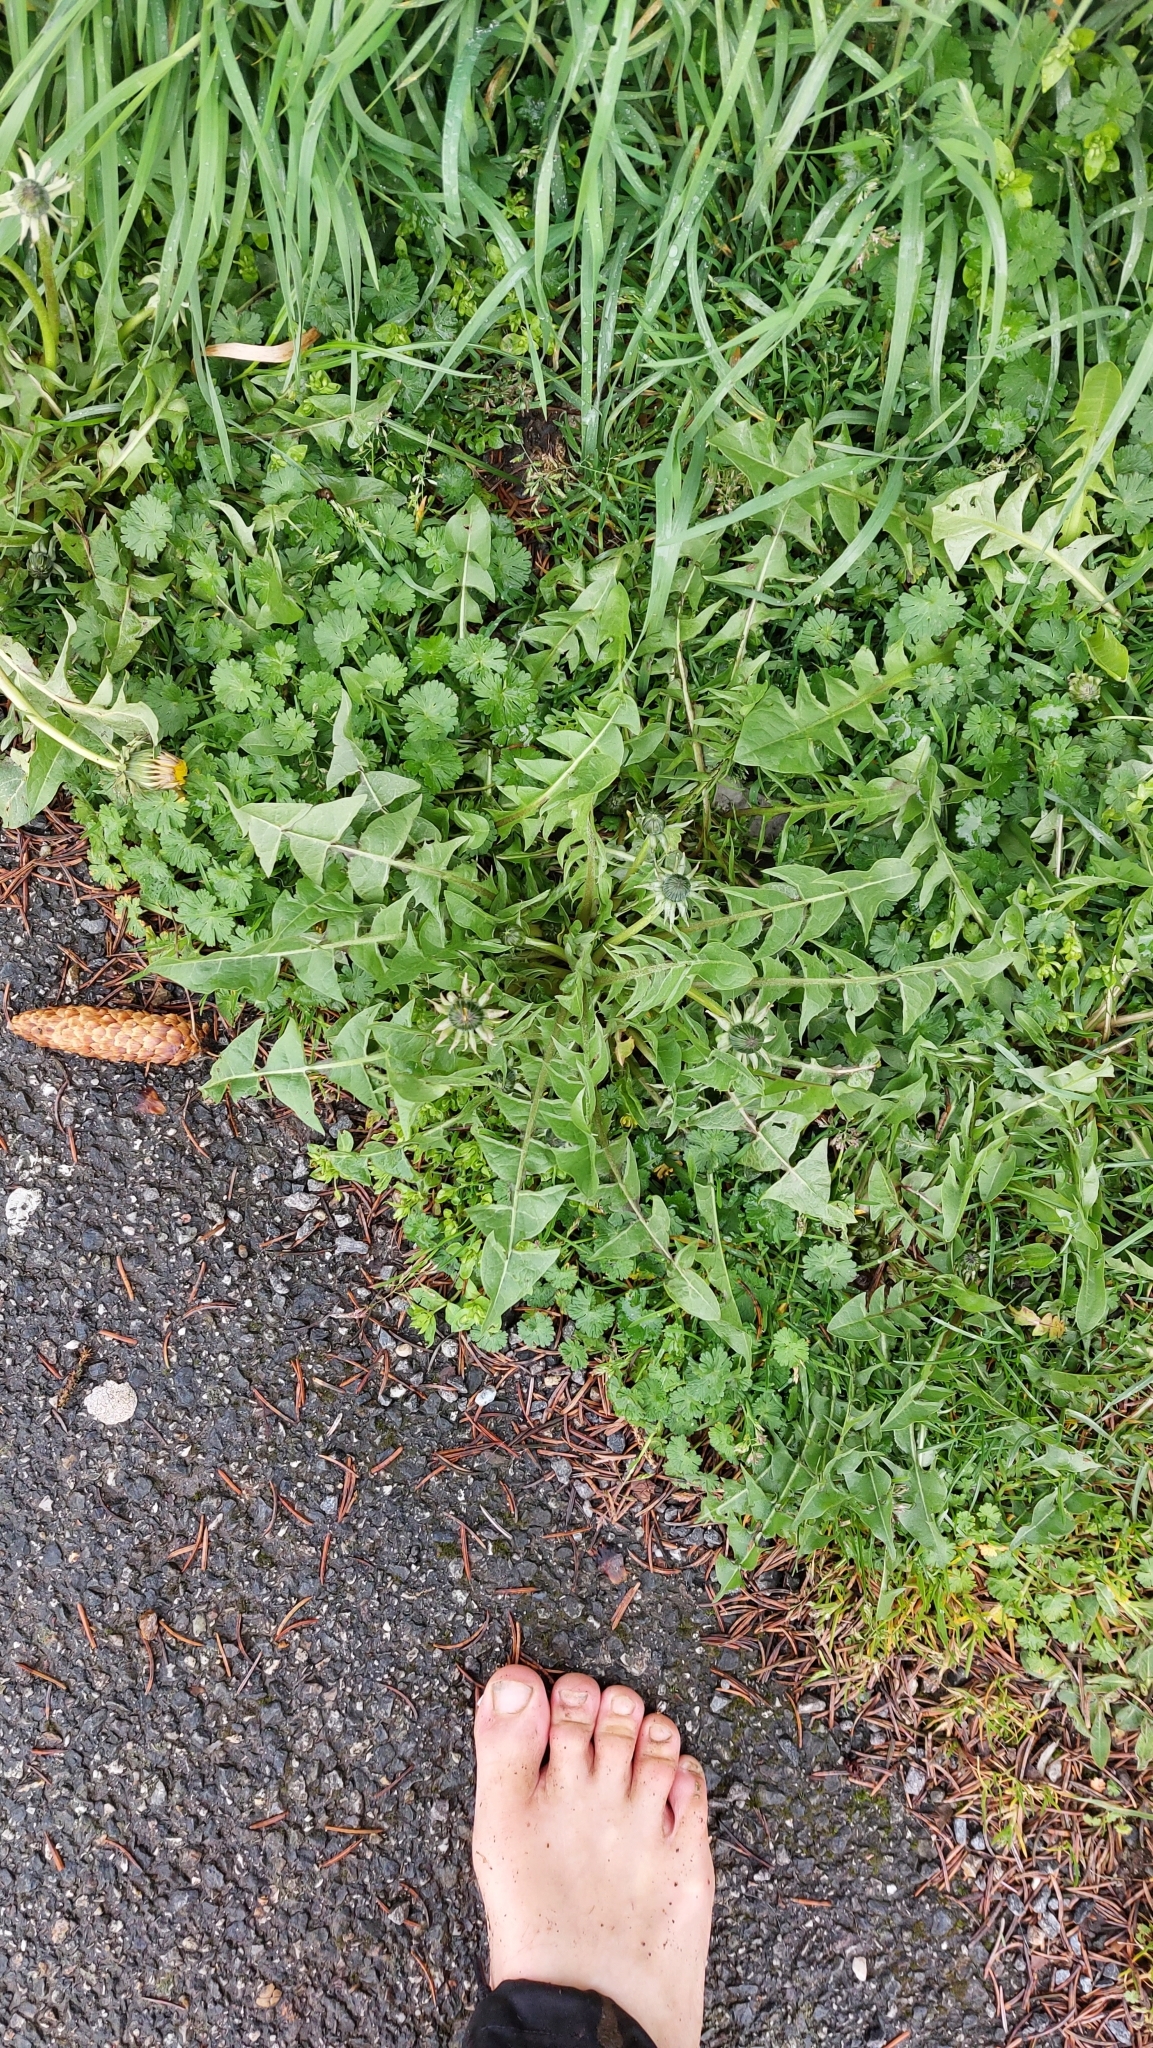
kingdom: Plantae
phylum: Tracheophyta
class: Magnoliopsida
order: Asterales
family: Asteraceae
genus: Taraxacum
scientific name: Taraxacum
